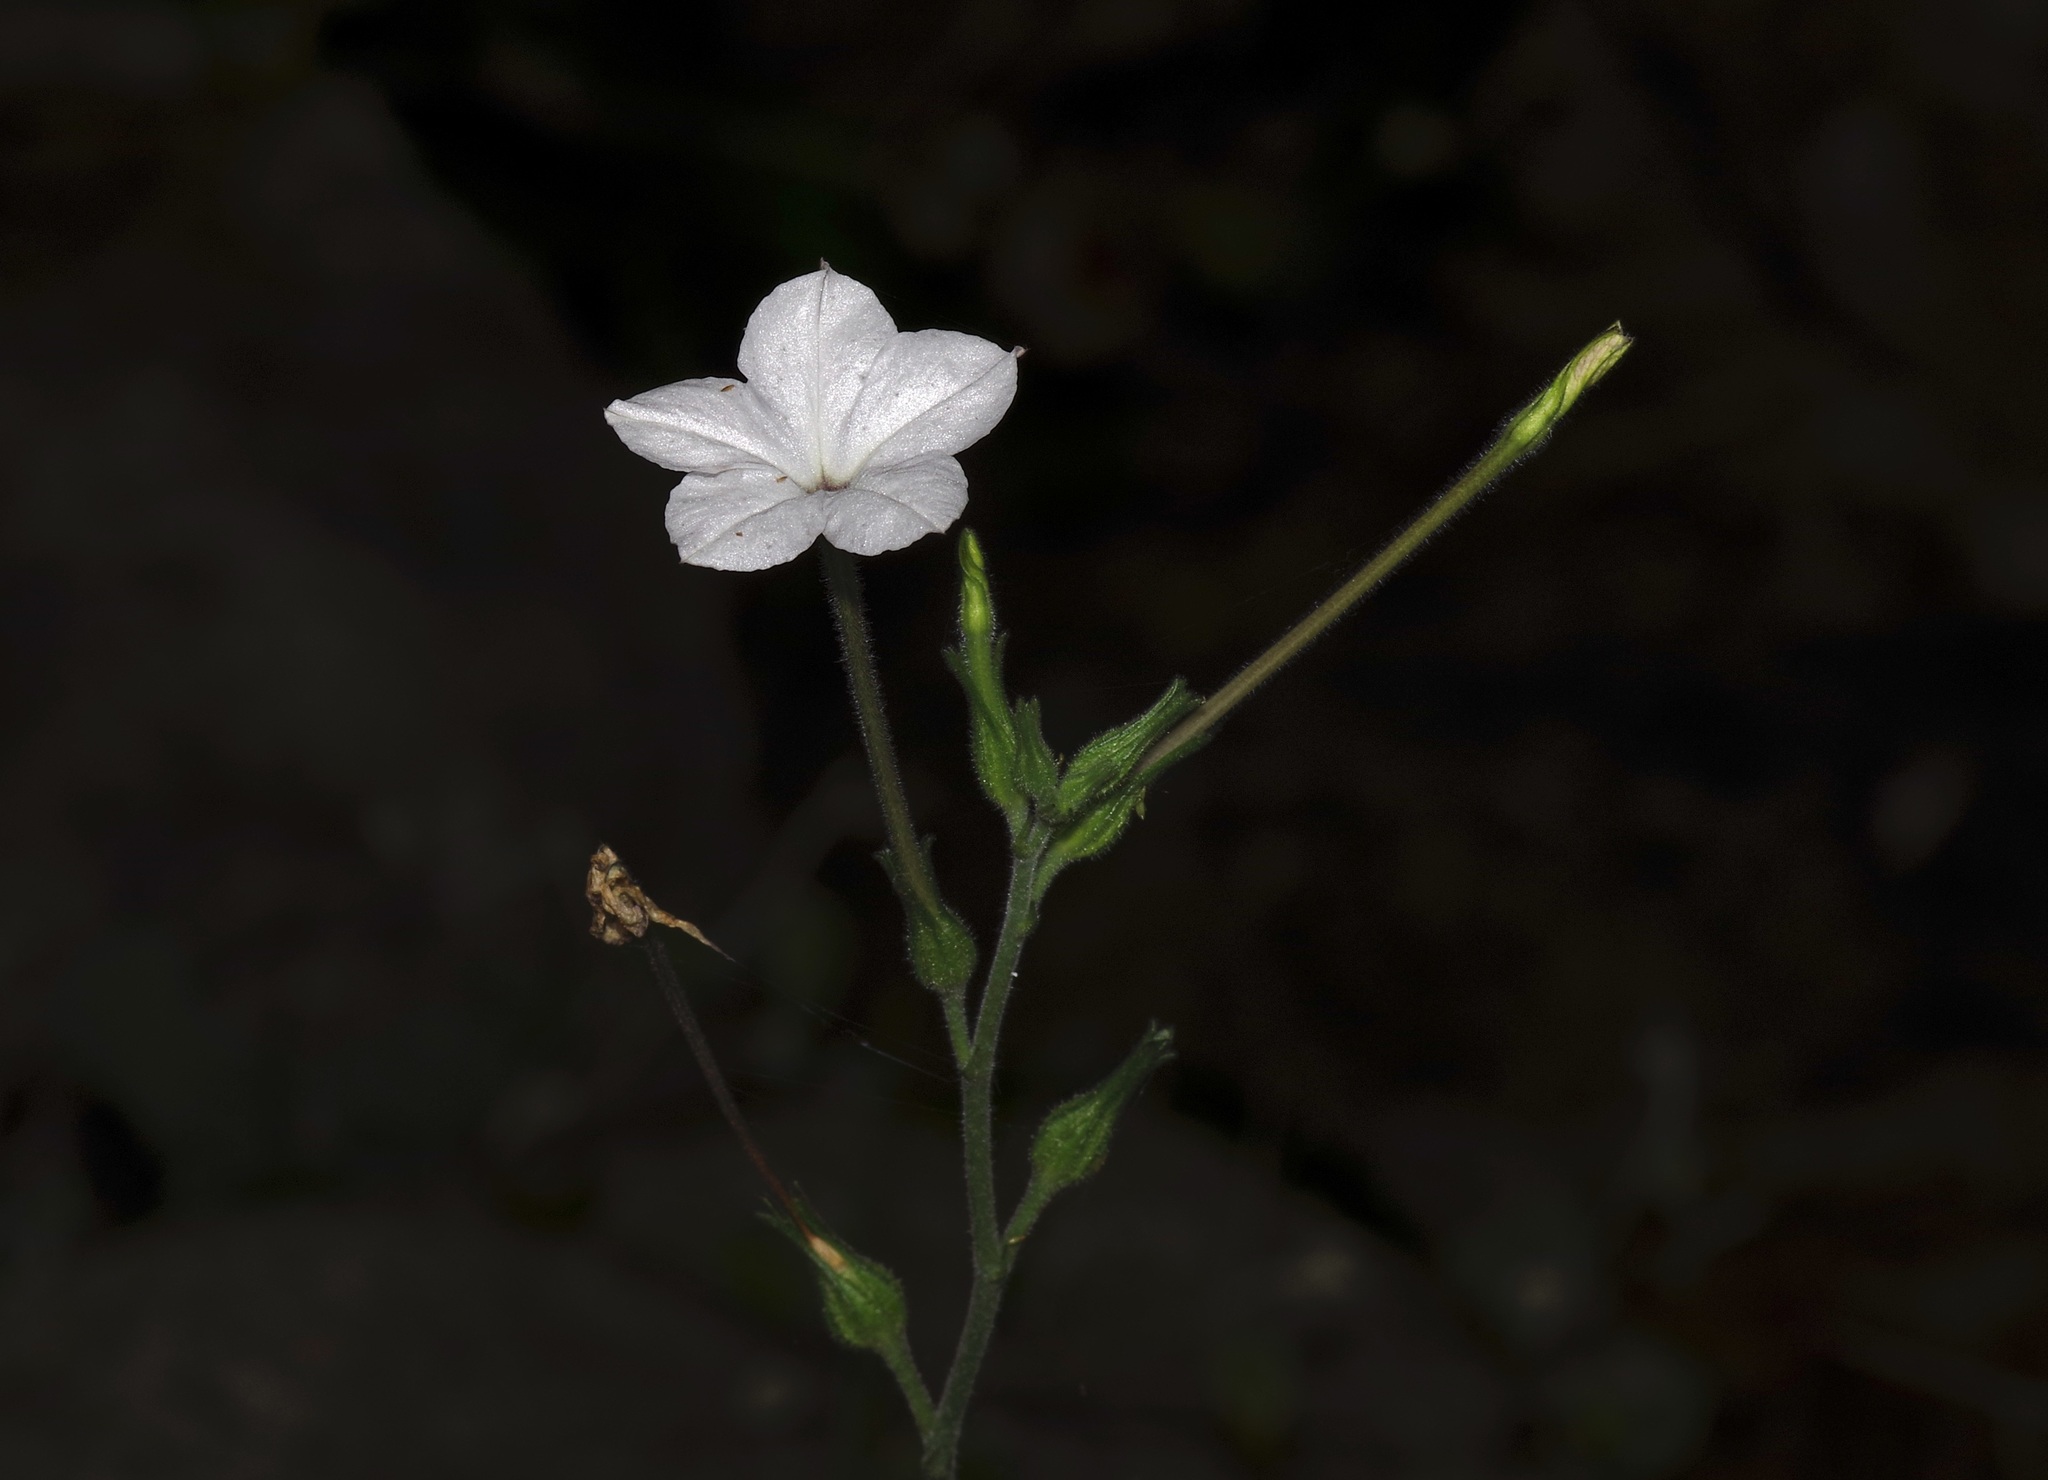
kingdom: Plantae
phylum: Tracheophyta
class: Magnoliopsida
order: Solanales
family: Solanaceae
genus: Nicotiana
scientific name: Nicotiana repanda
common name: Fiddle-leaf tobacco
